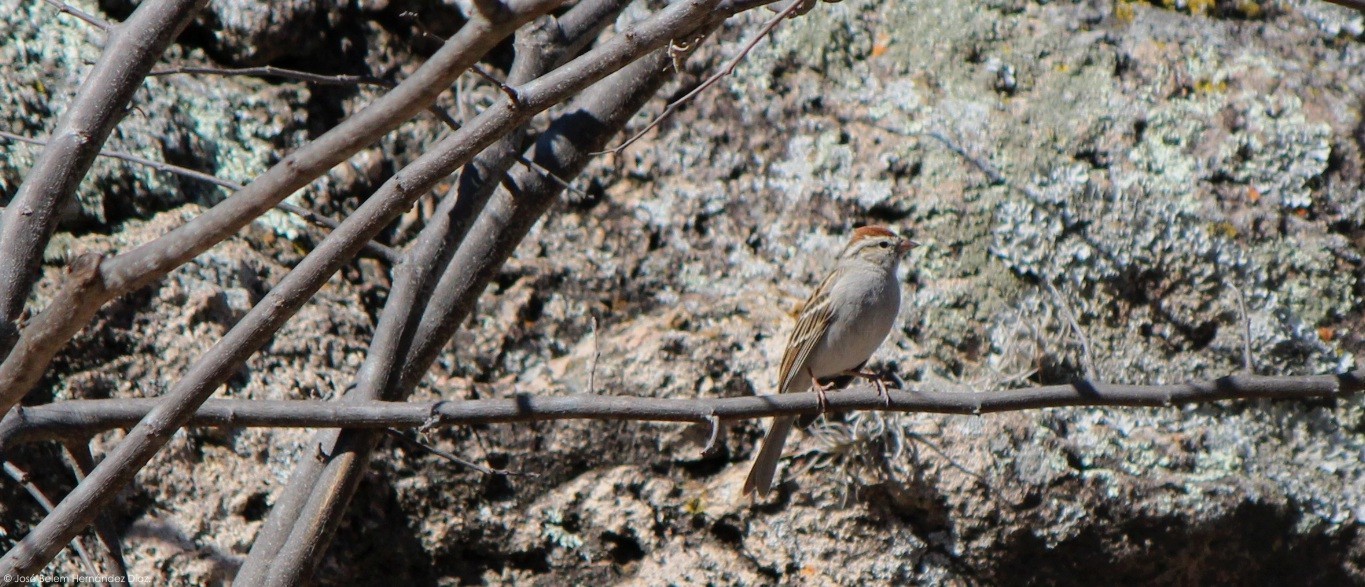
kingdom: Animalia
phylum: Chordata
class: Aves
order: Passeriformes
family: Passerellidae
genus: Spizella
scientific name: Spizella passerina
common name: Chipping sparrow
